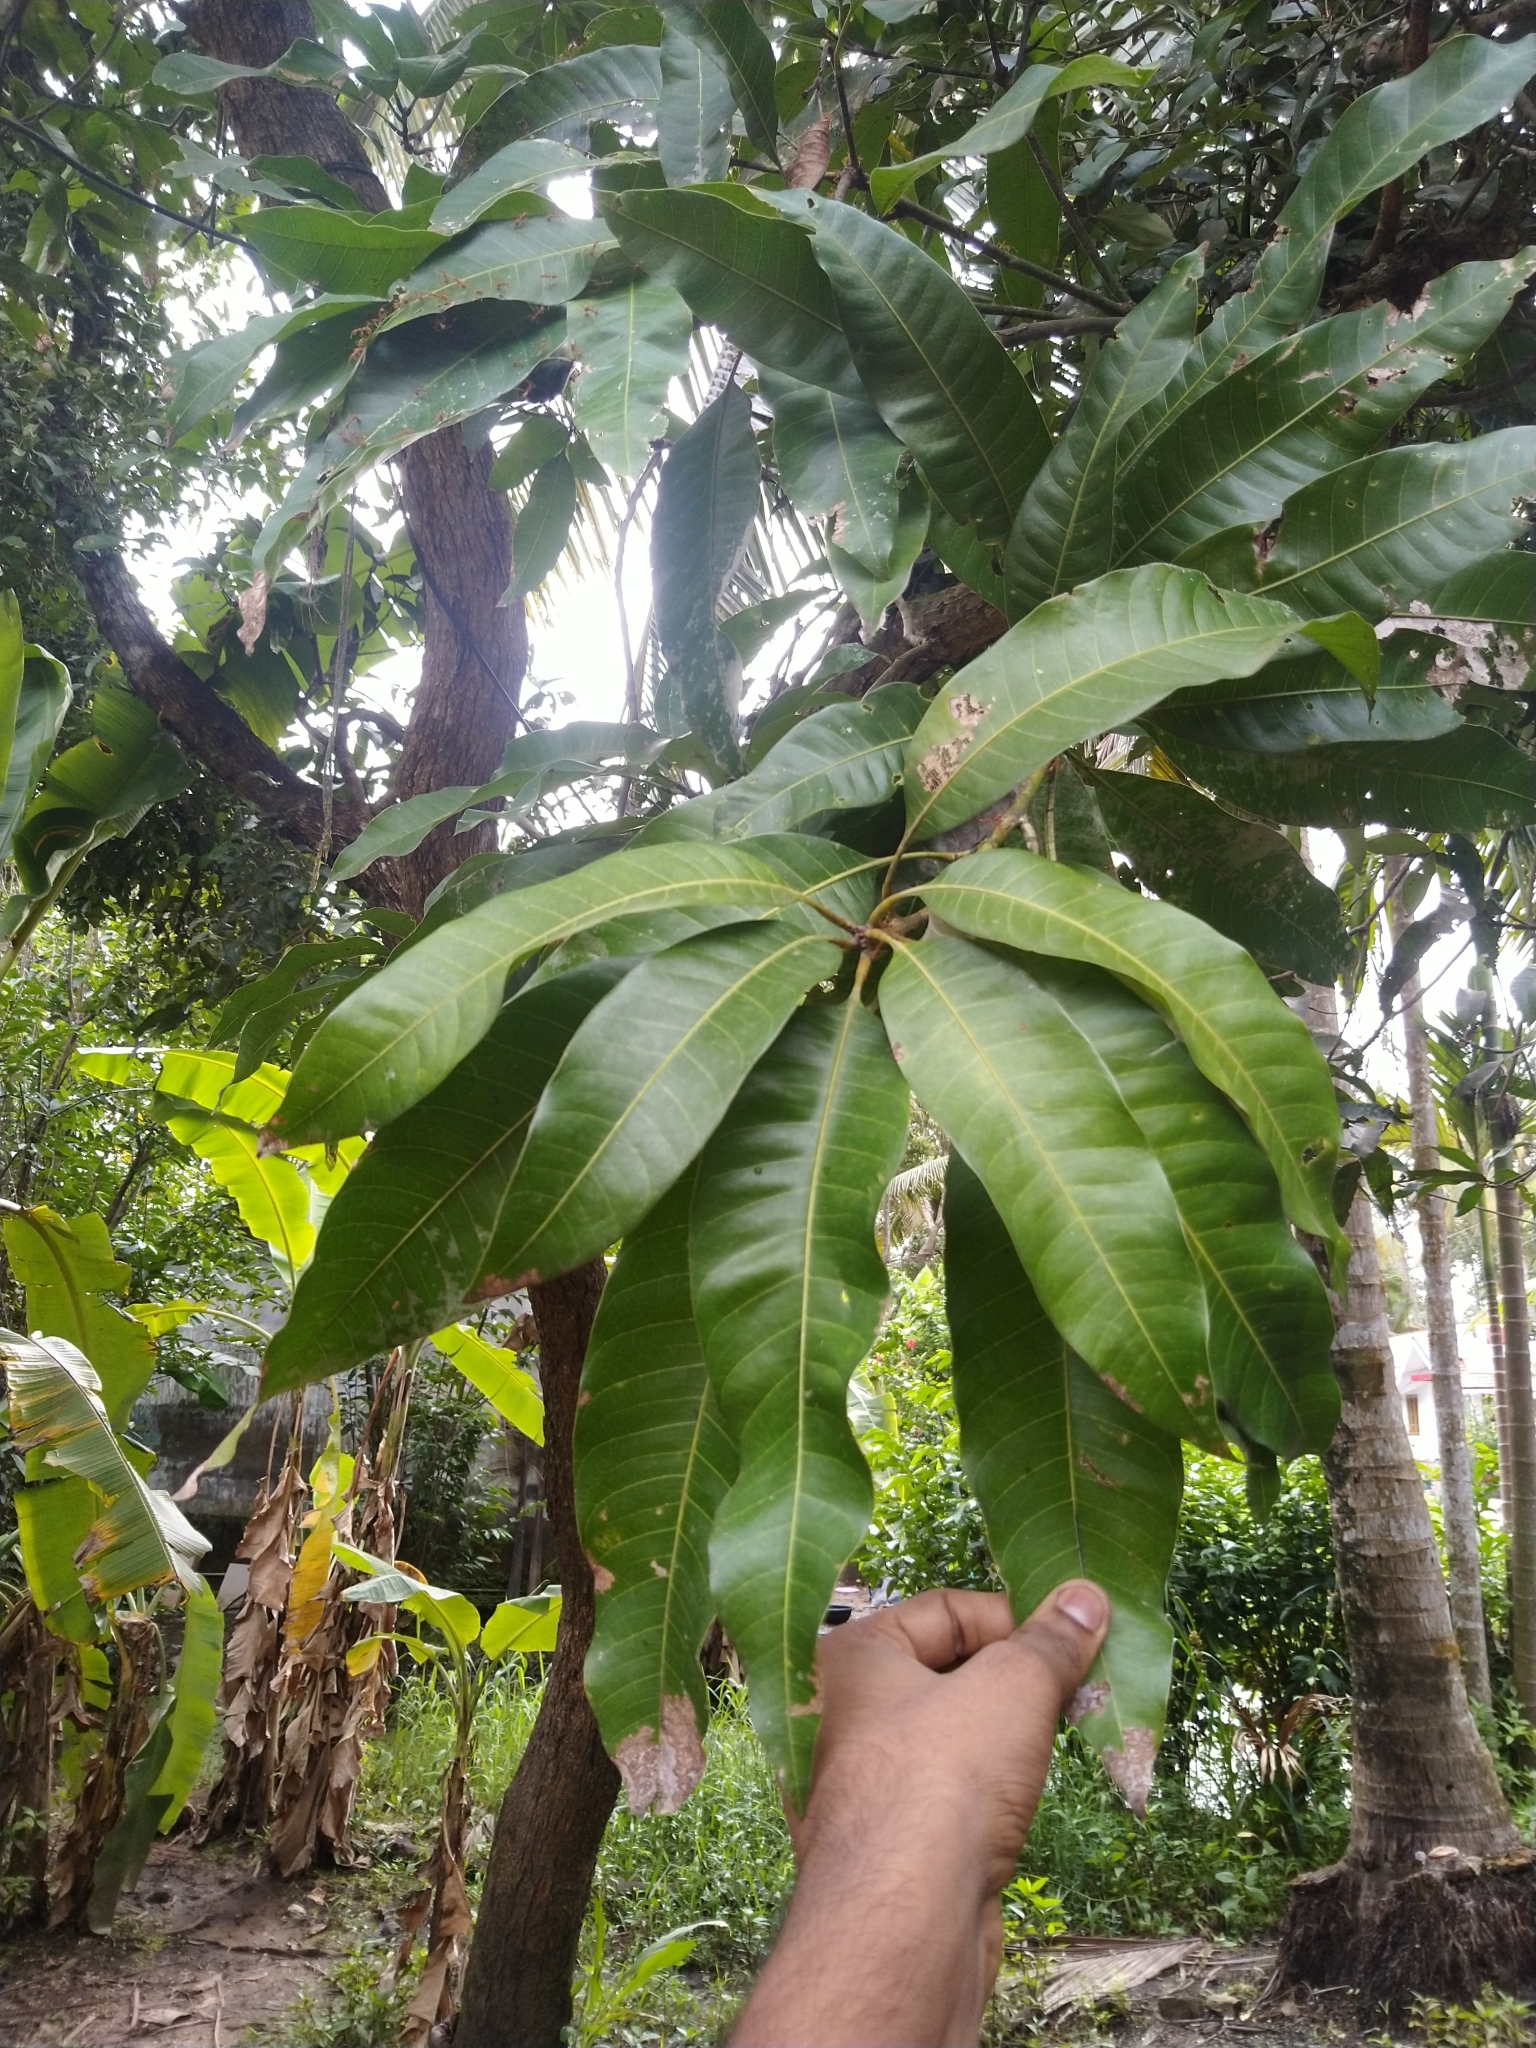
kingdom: Plantae
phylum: Tracheophyta
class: Magnoliopsida
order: Sapindales
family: Anacardiaceae
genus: Mangifera
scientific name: Mangifera indica
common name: Mango
